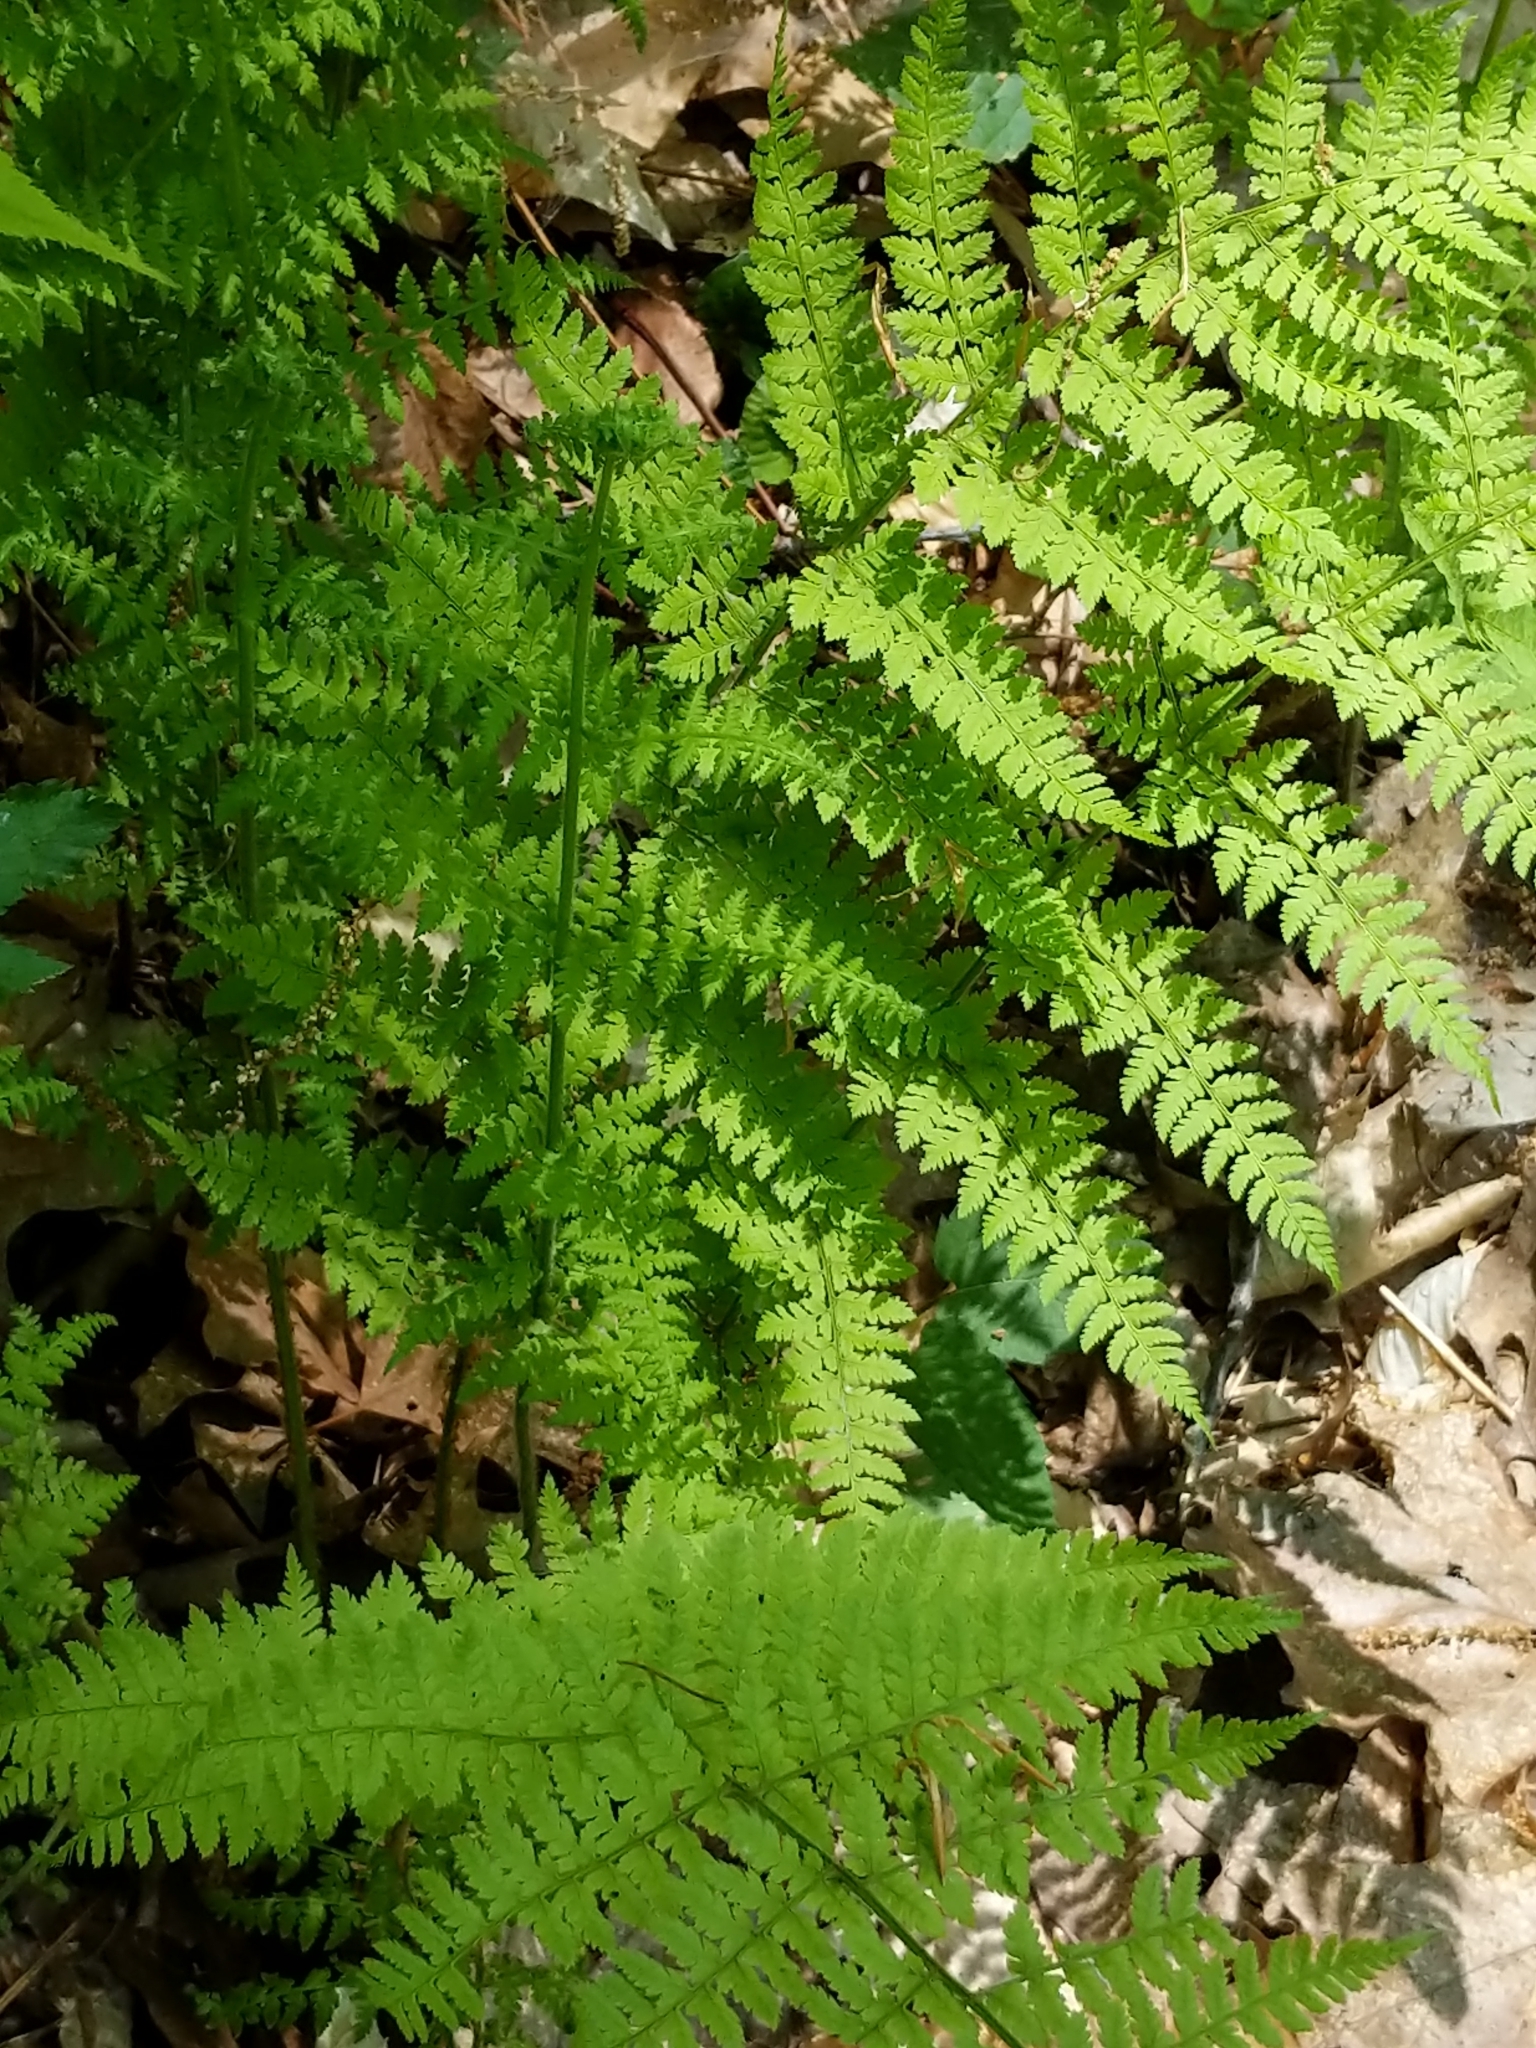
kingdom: Plantae
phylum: Tracheophyta
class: Polypodiopsida
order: Polypodiales
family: Dryopteridaceae
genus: Dryopteris
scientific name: Dryopteris intermedia
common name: Evergreen wood fern
